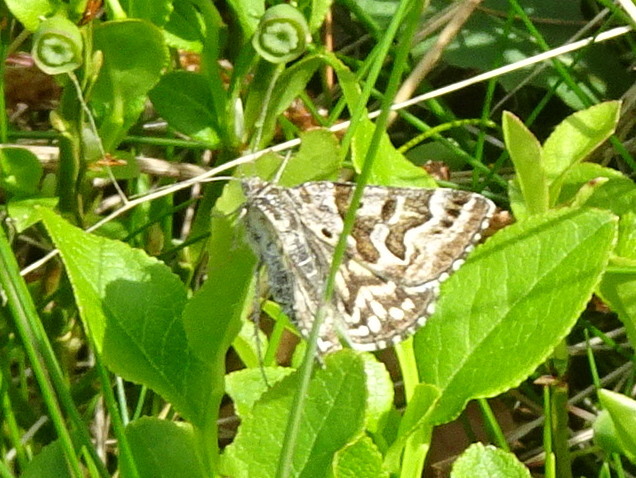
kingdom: Animalia
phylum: Arthropoda
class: Insecta
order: Lepidoptera
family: Erebidae
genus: Callistege
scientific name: Callistege mi
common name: Mother shipton
